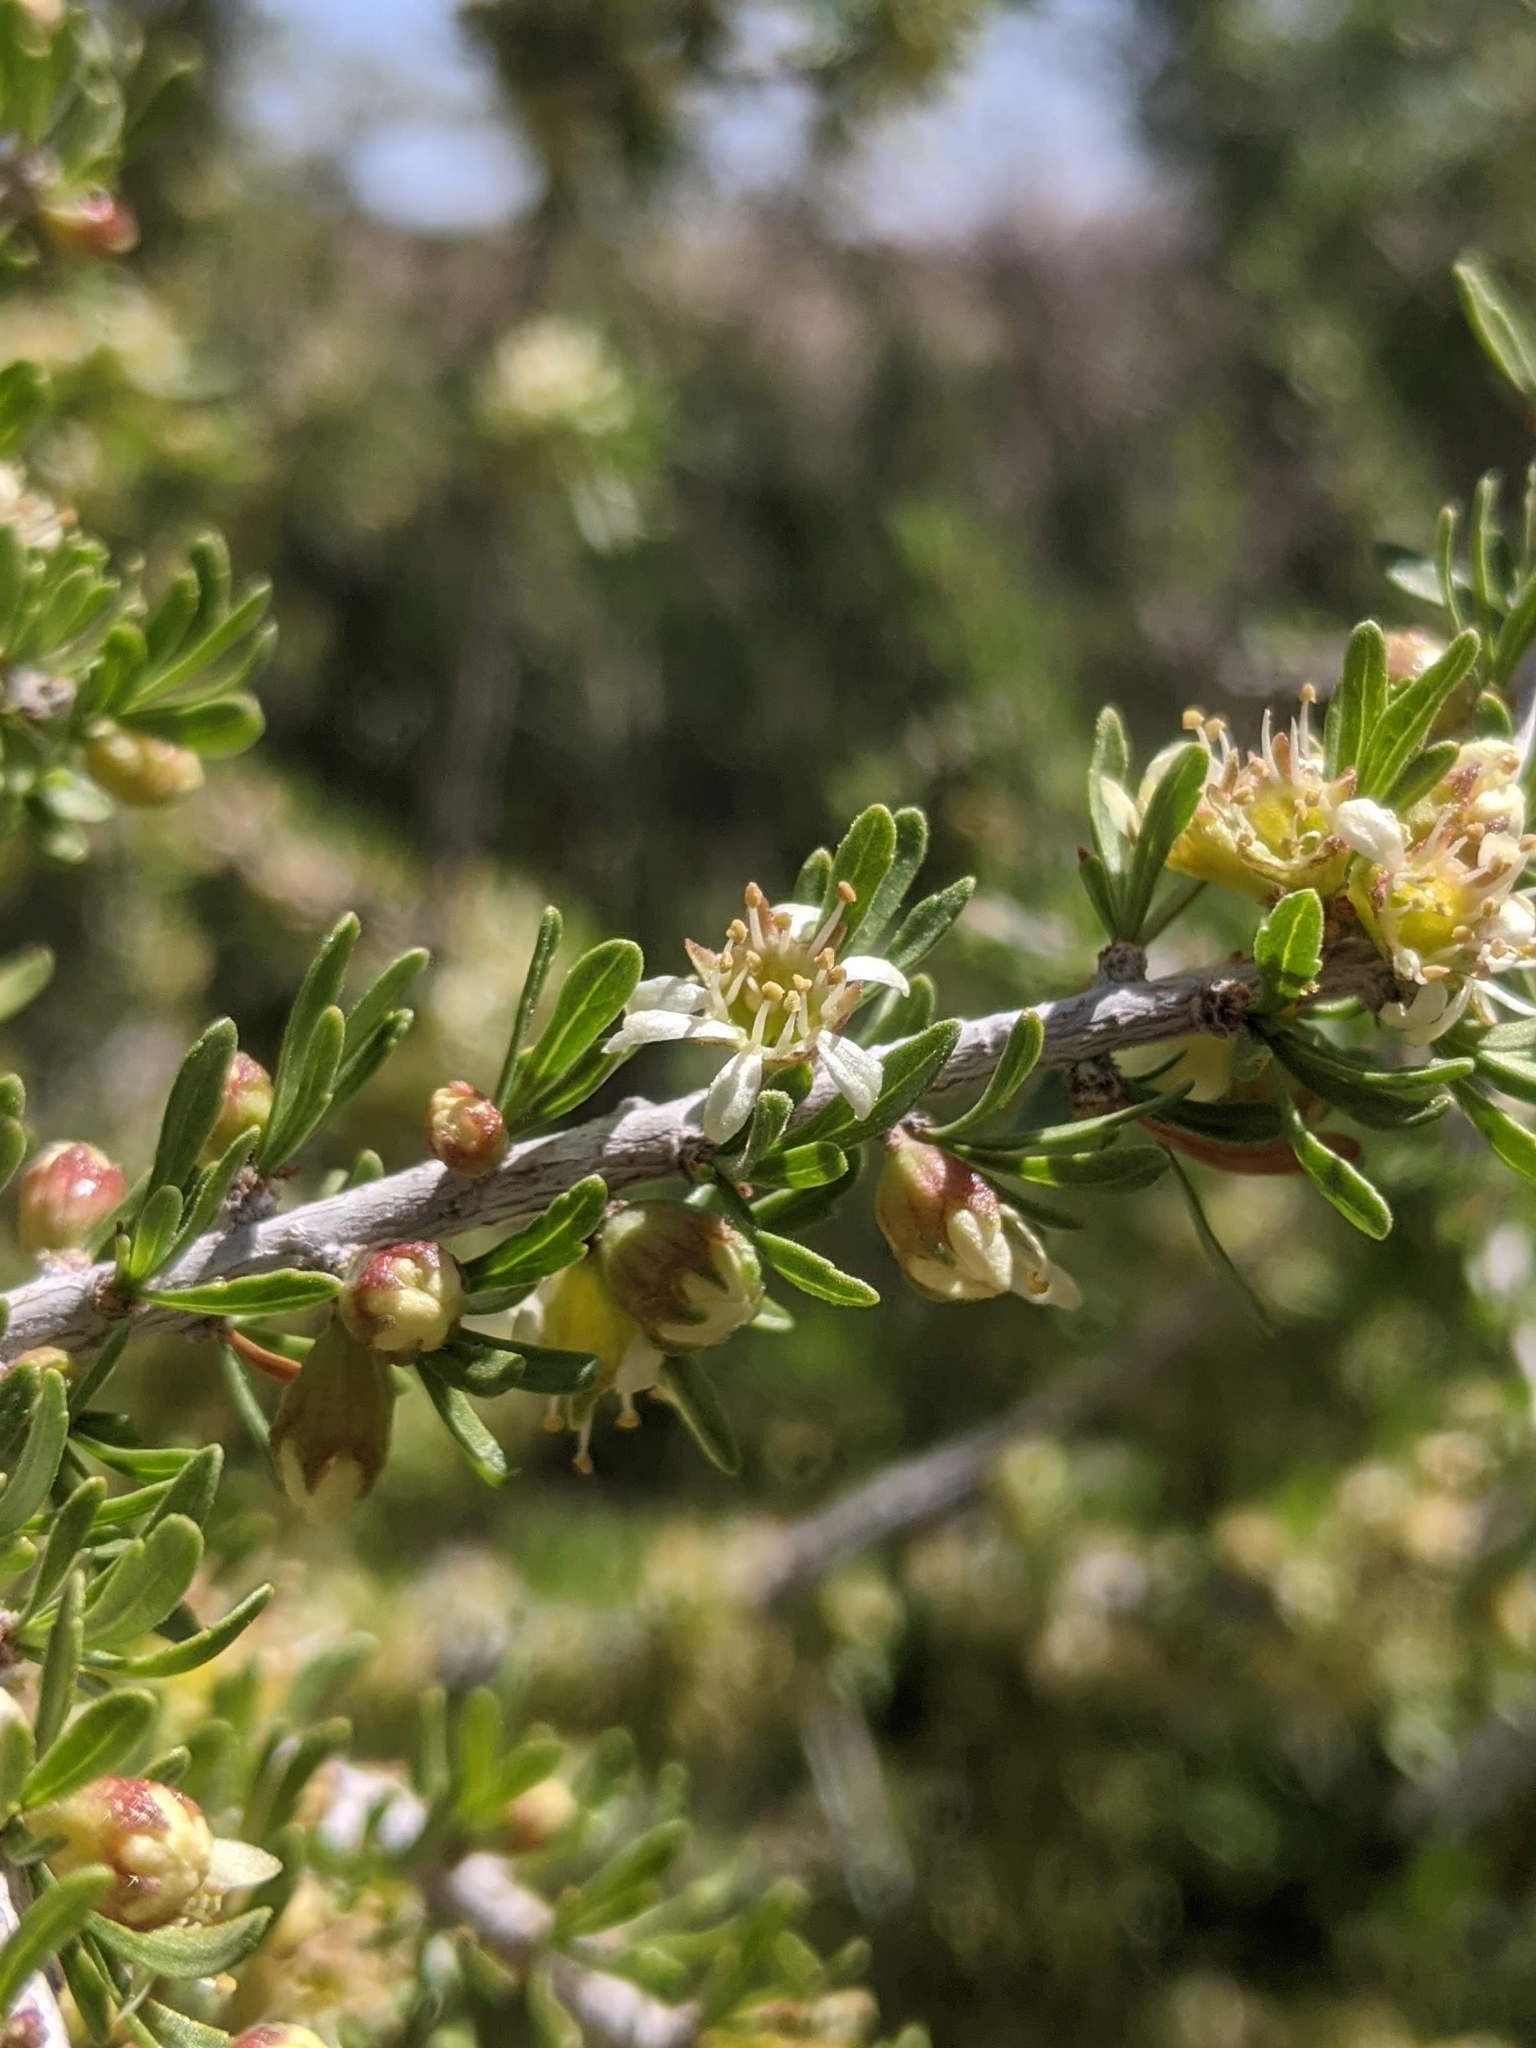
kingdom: Plantae
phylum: Tracheophyta
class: Magnoliopsida
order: Rosales
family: Rosaceae
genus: Prunus
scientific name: Prunus fasciculata
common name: Desert almond
